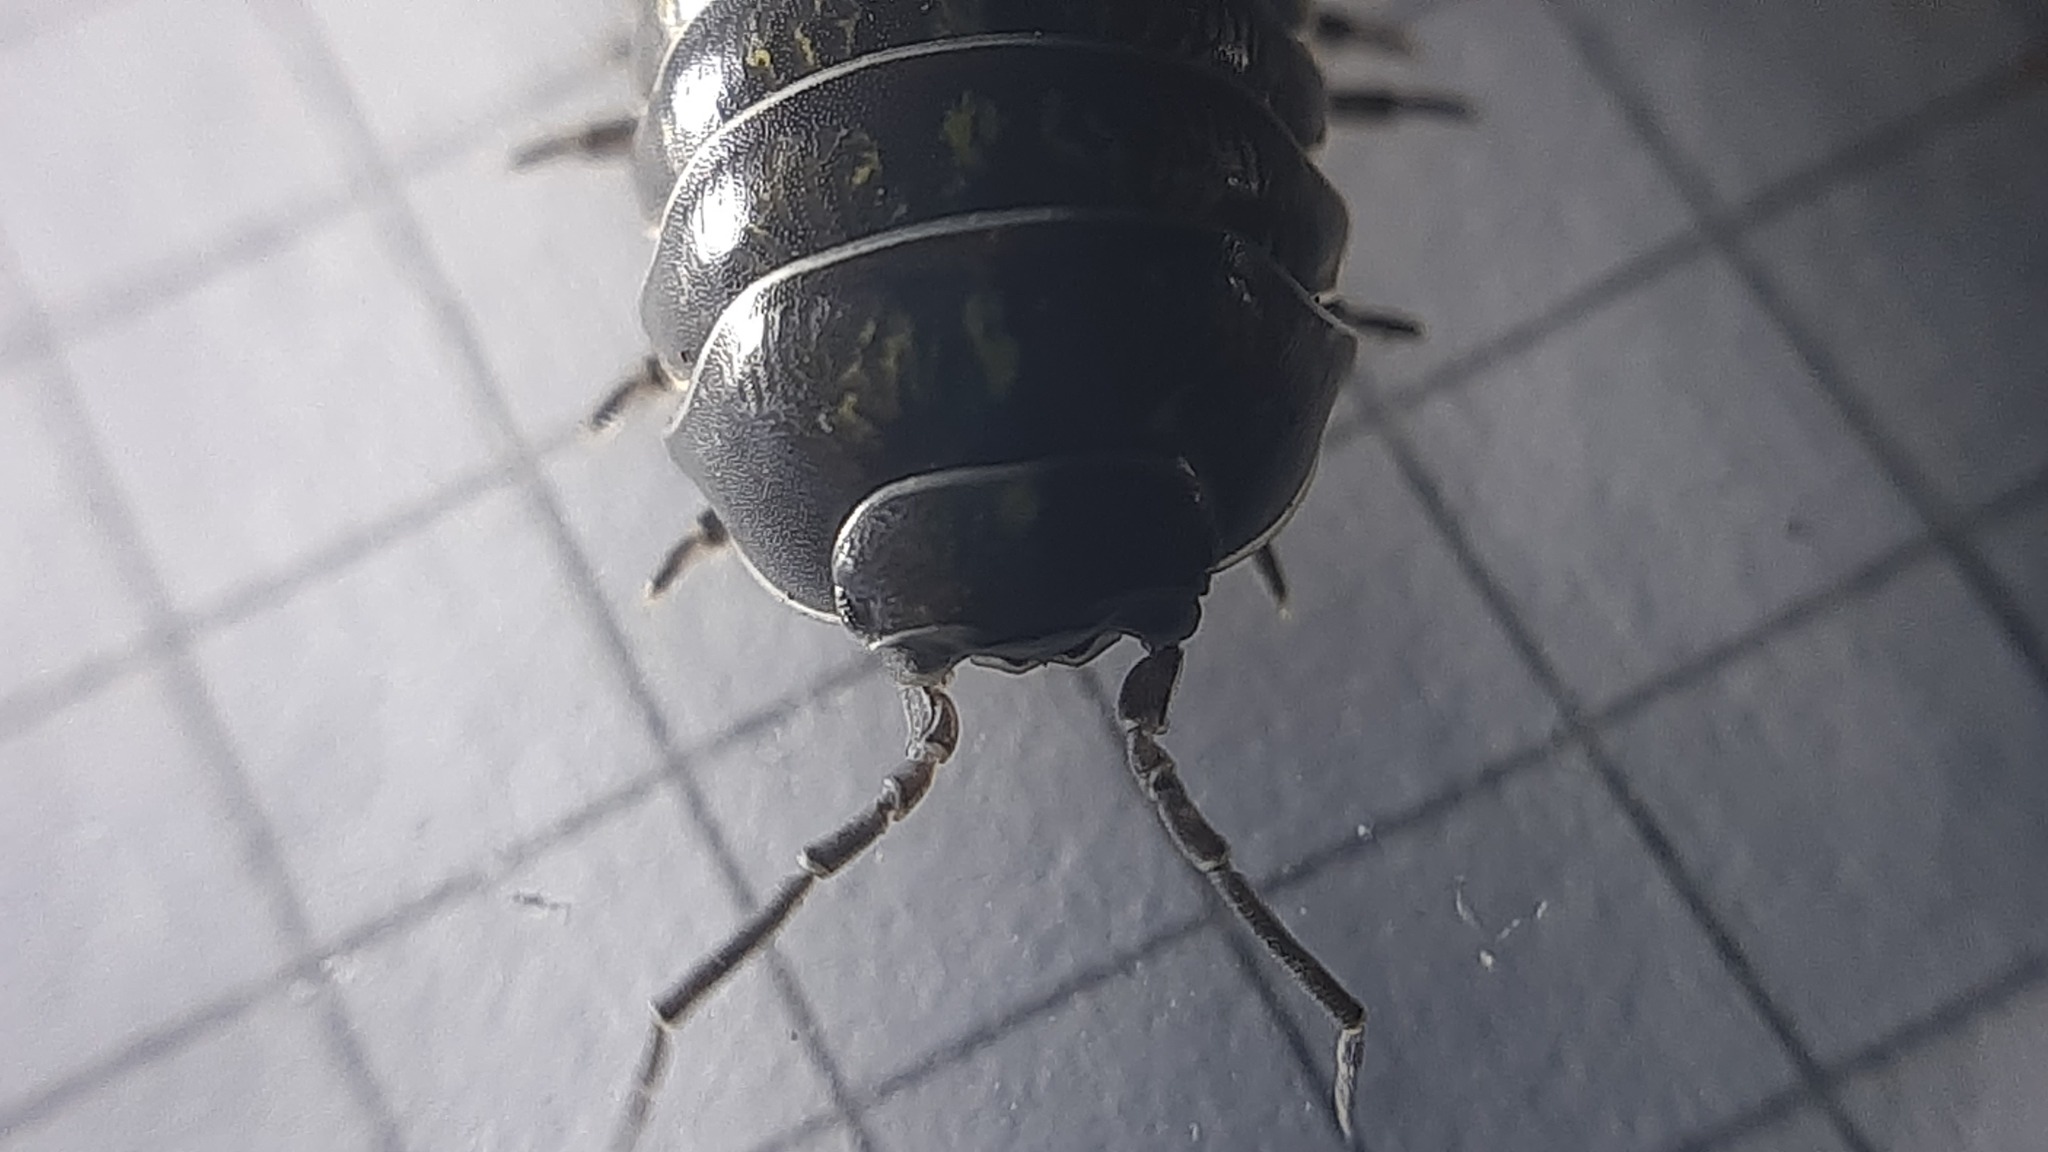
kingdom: Animalia
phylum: Arthropoda
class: Malacostraca
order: Isopoda
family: Armadillidiidae
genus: Armadillidium
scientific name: Armadillidium vulgare
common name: Common pill woodlouse
